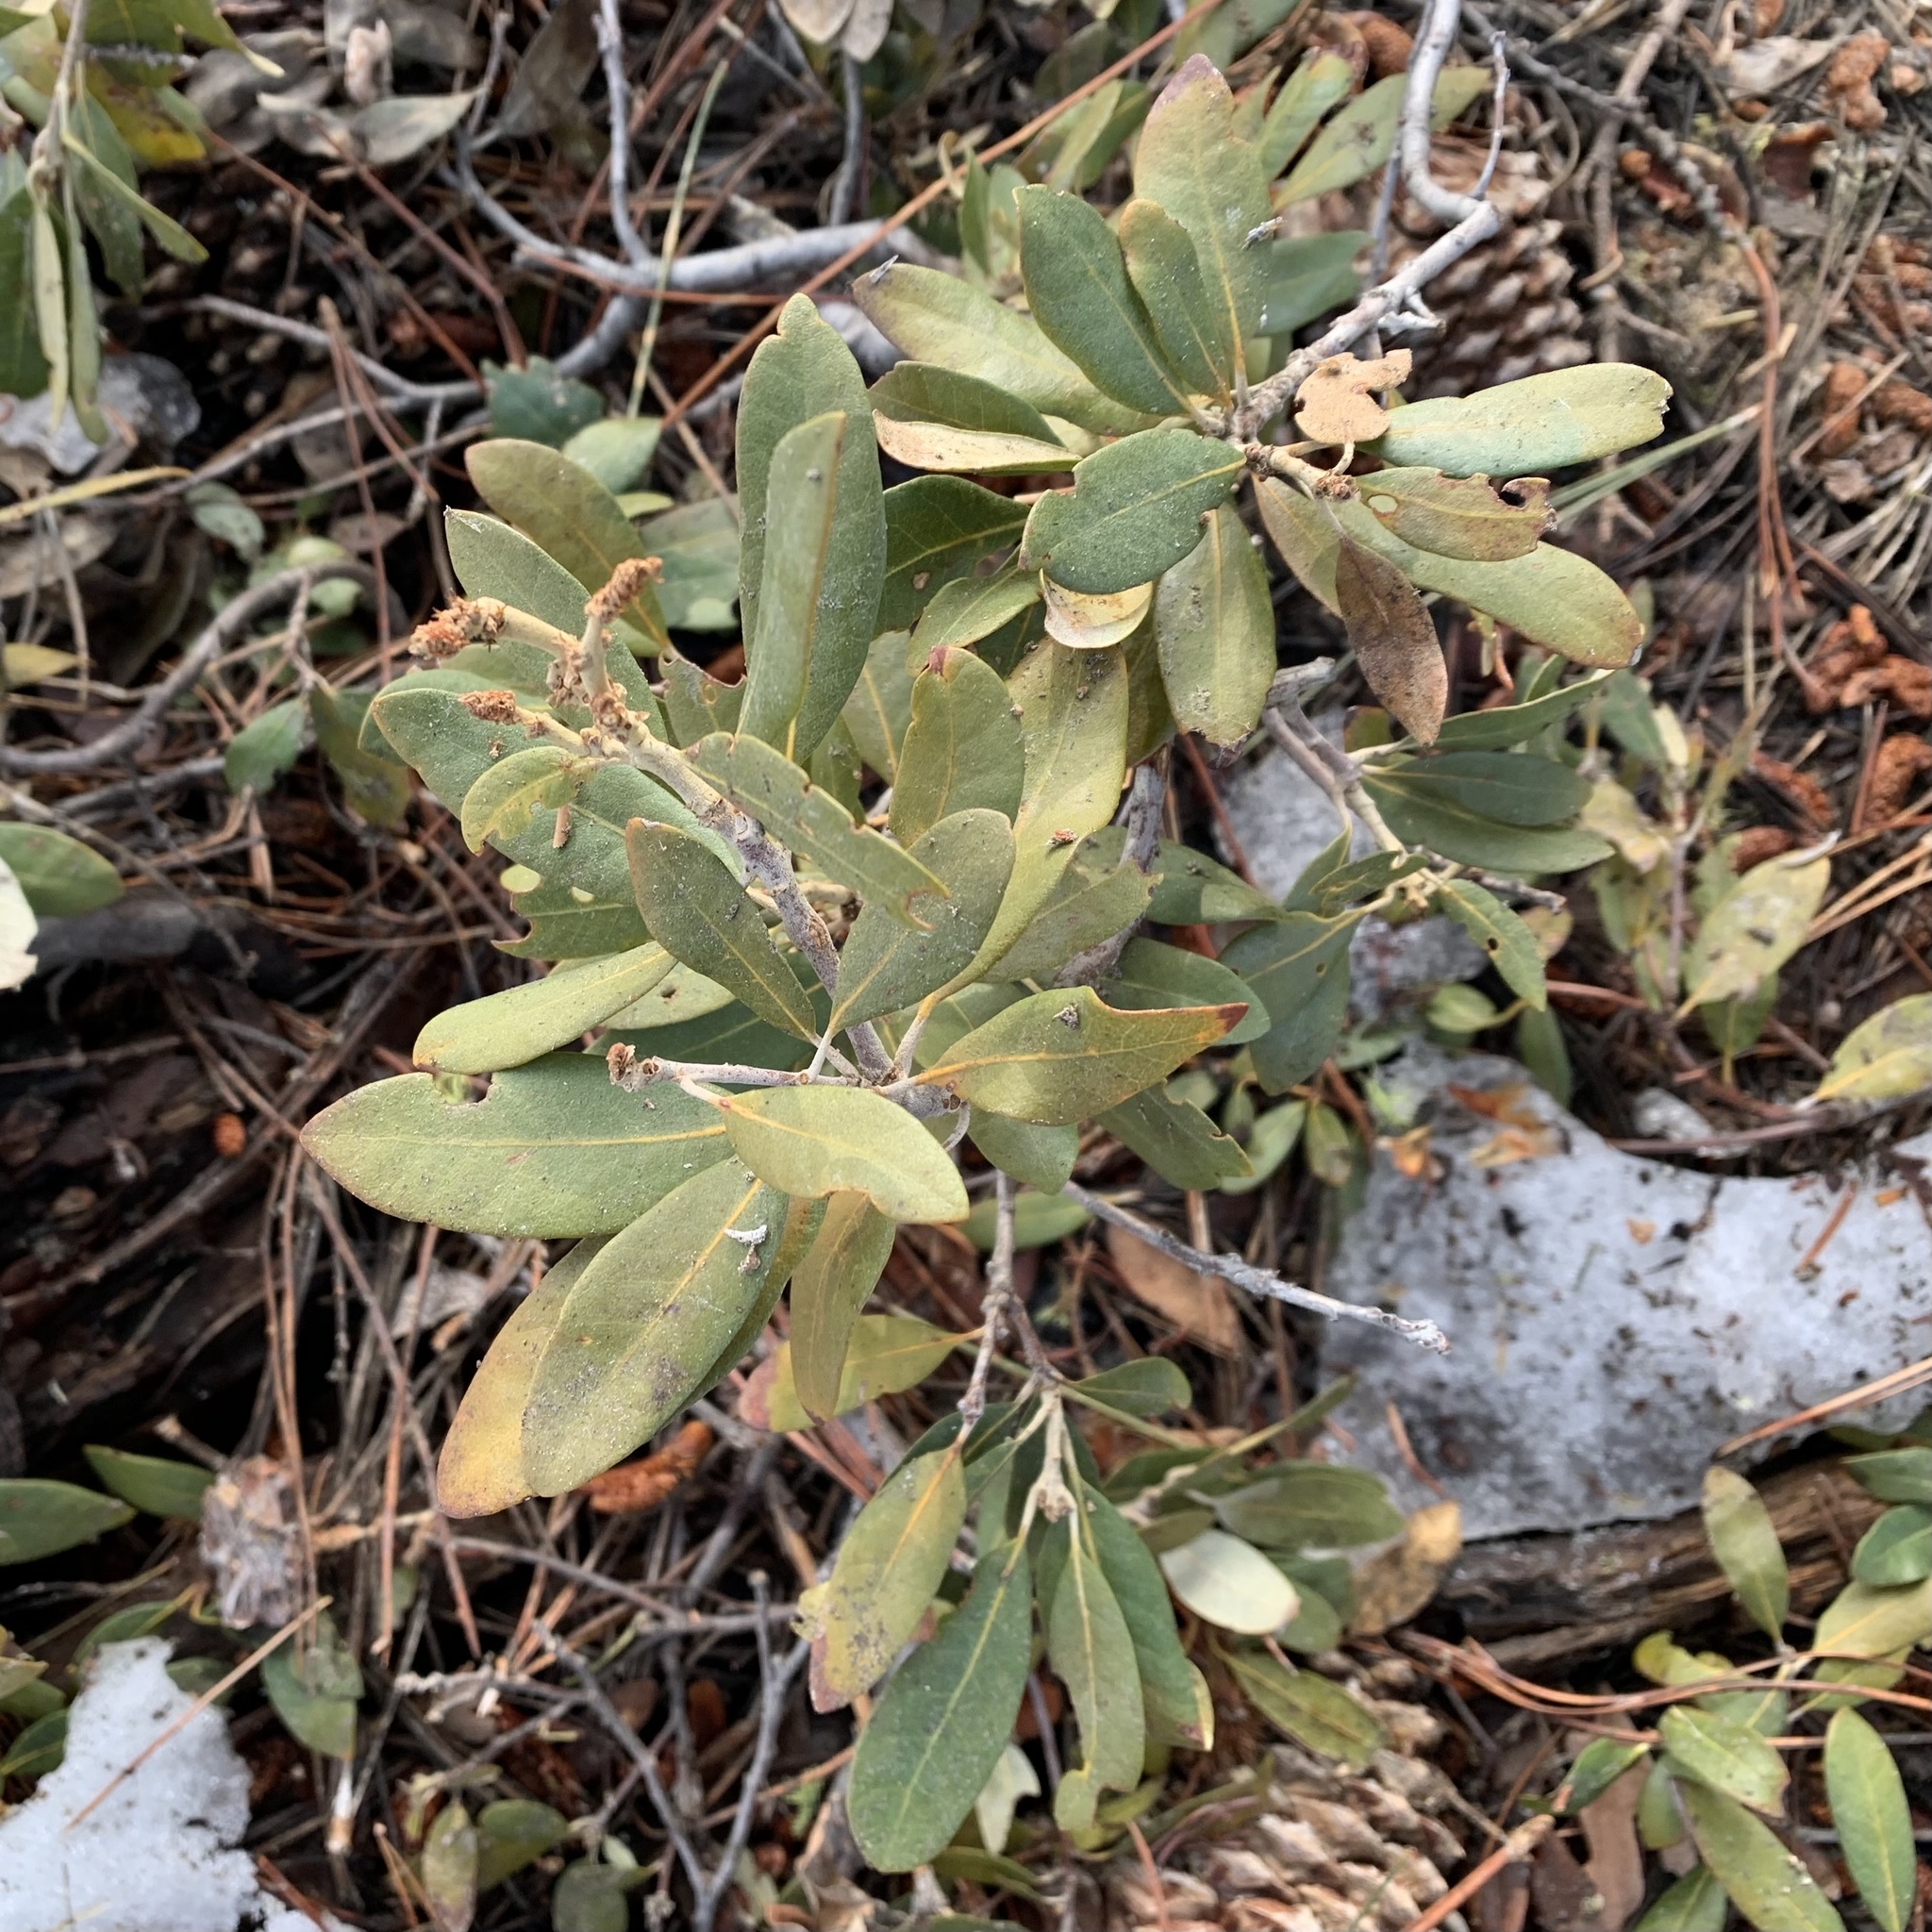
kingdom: Plantae
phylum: Tracheophyta
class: Magnoliopsida
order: Fagales
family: Fagaceae
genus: Chrysolepis
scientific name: Chrysolepis sempervirens
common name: Bush chinquapin
